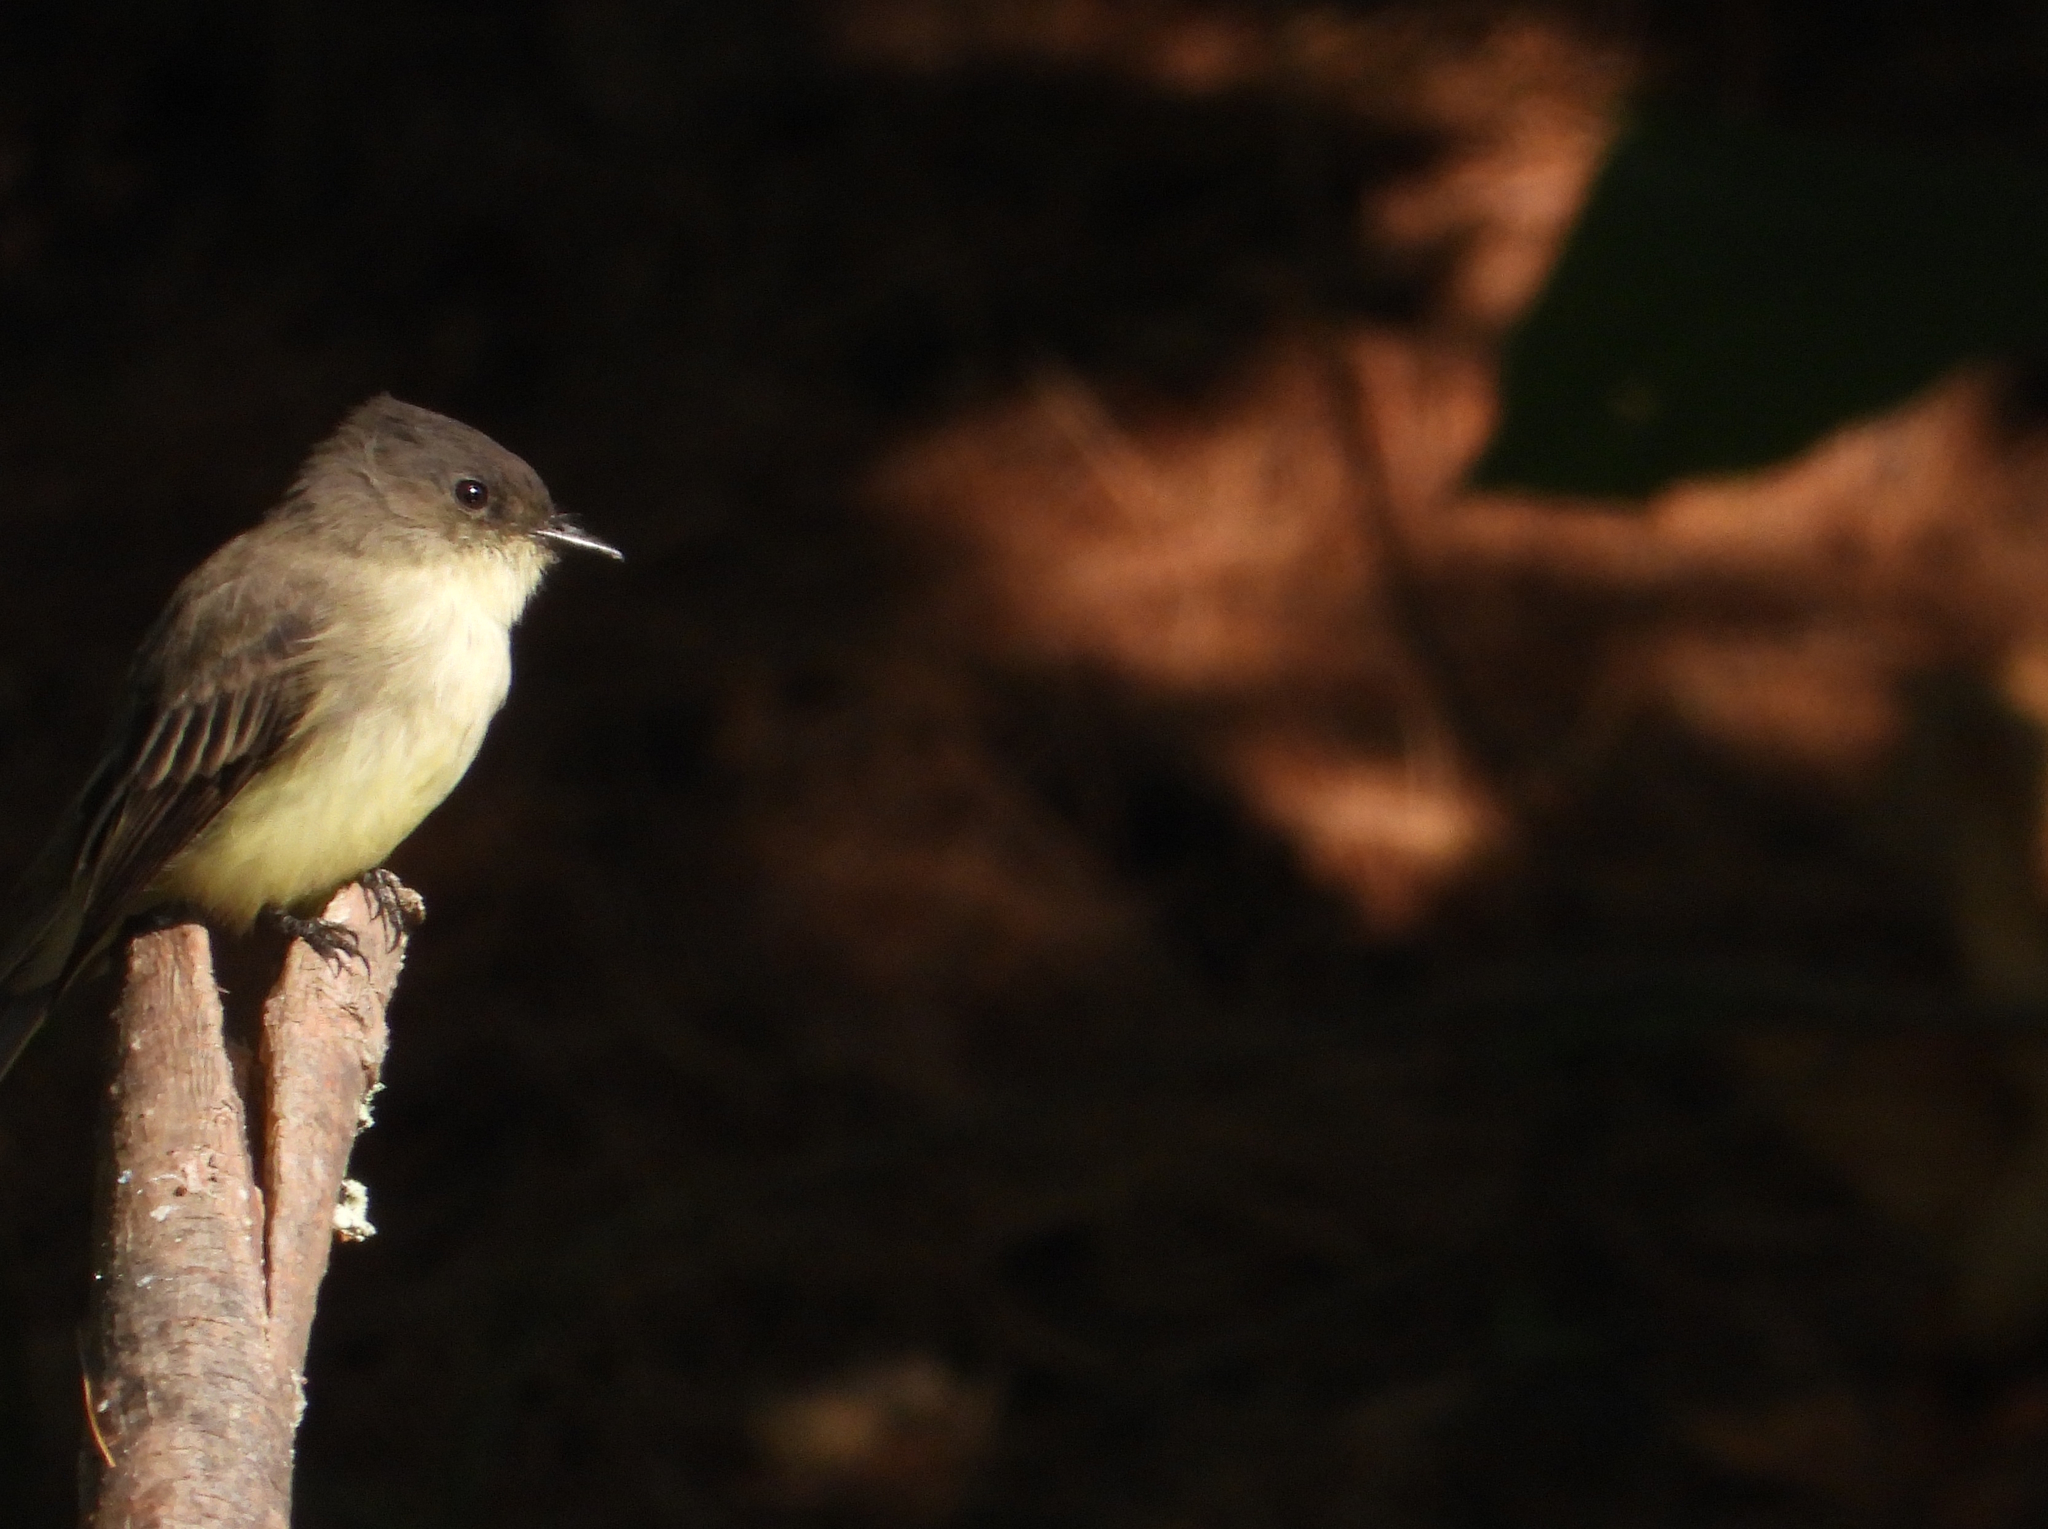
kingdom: Animalia
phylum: Chordata
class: Aves
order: Passeriformes
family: Tyrannidae
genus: Sayornis
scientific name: Sayornis phoebe
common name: Eastern phoebe
